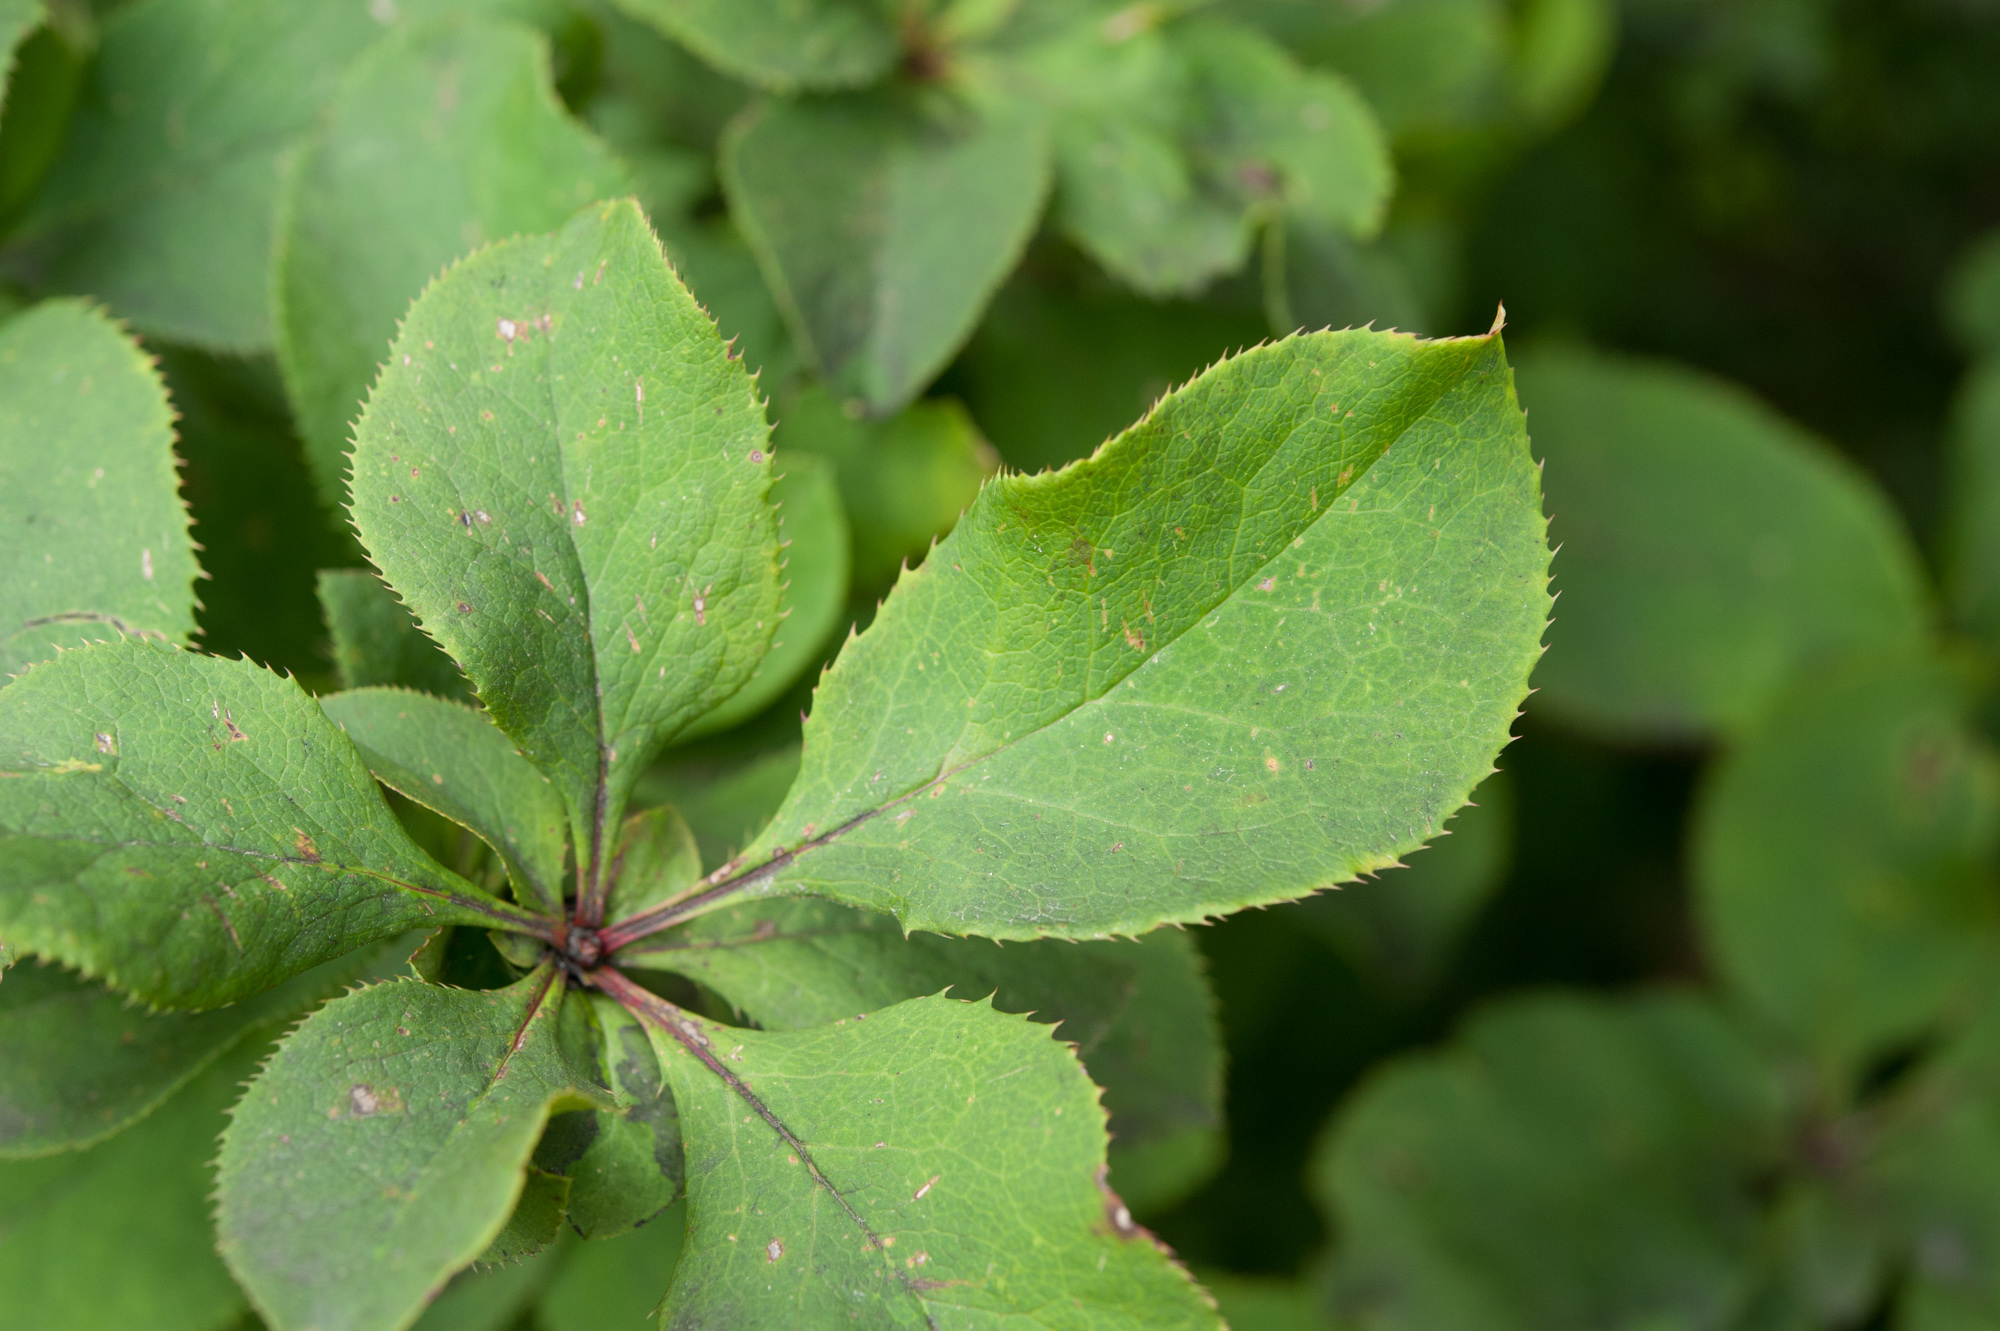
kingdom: Plantae
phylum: Tracheophyta
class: Magnoliopsida
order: Ranunculales
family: Berberidaceae
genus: Berberis
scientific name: Berberis amurensis
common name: Amur barberry
